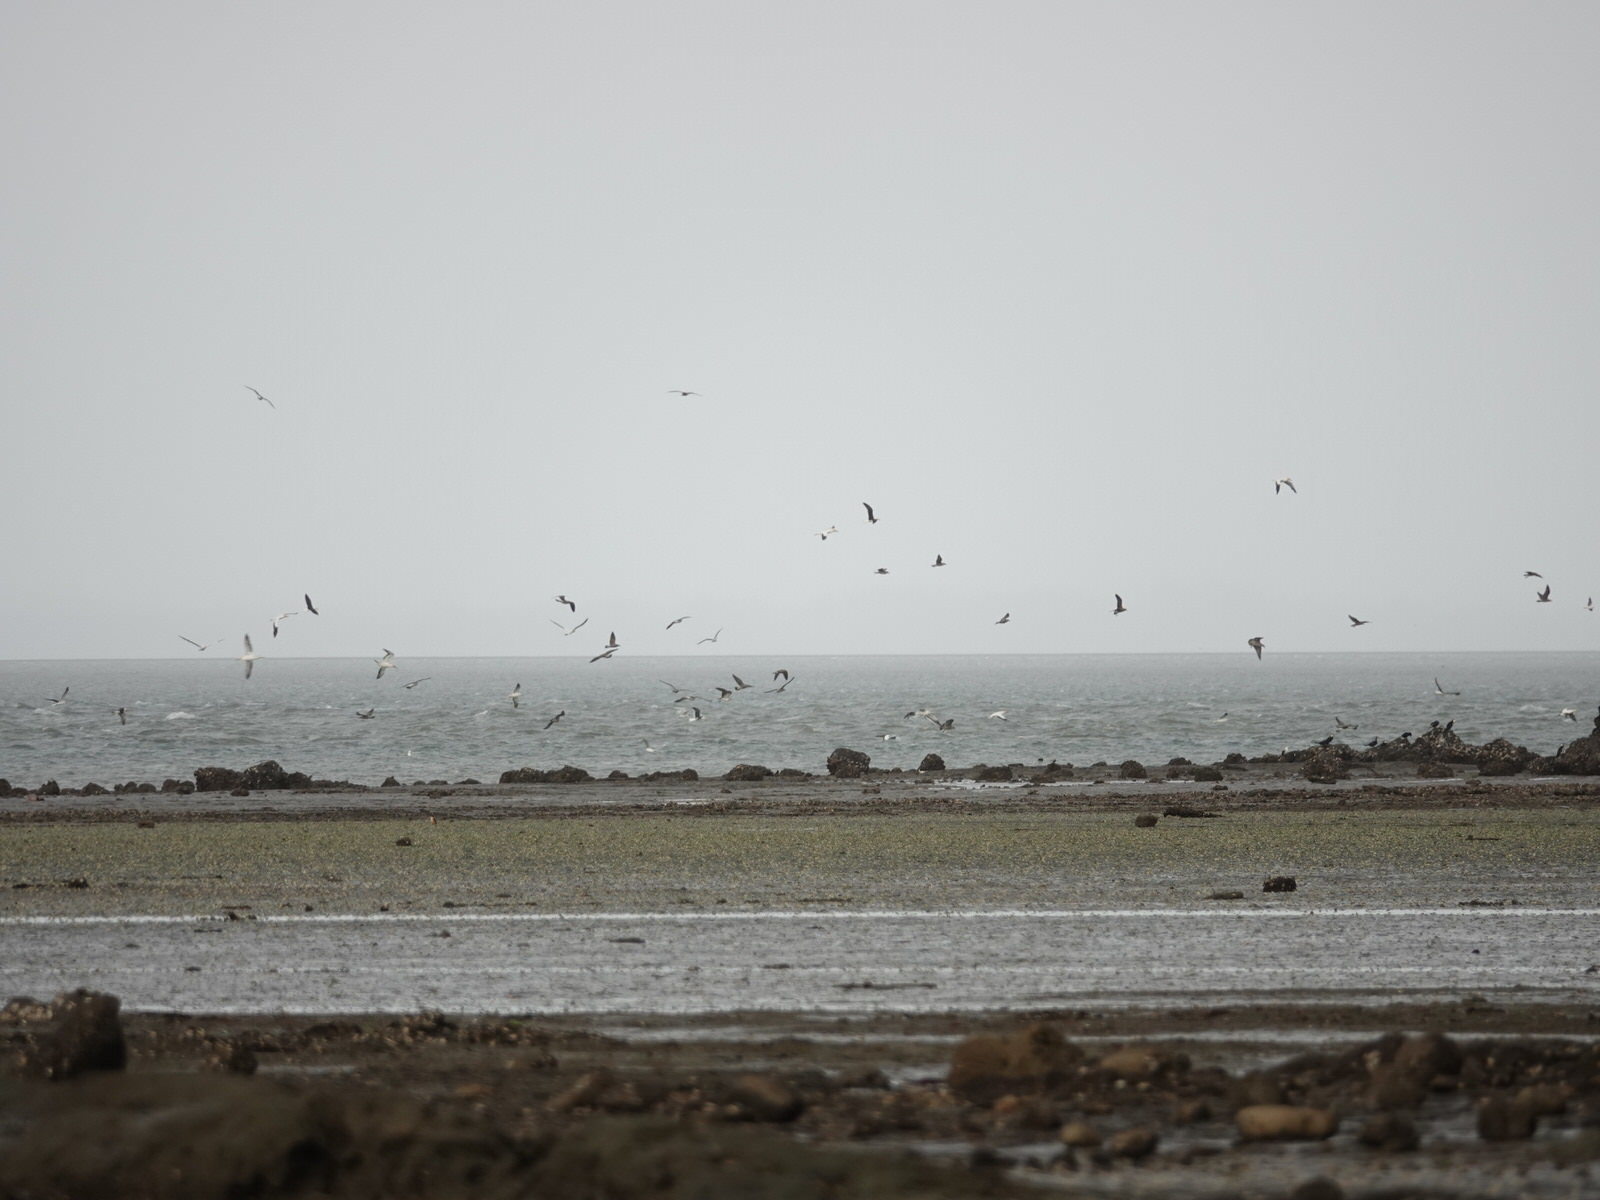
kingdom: Animalia
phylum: Chordata
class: Aves
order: Suliformes
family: Sulidae
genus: Morus
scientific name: Morus serrator
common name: Australasian gannet
